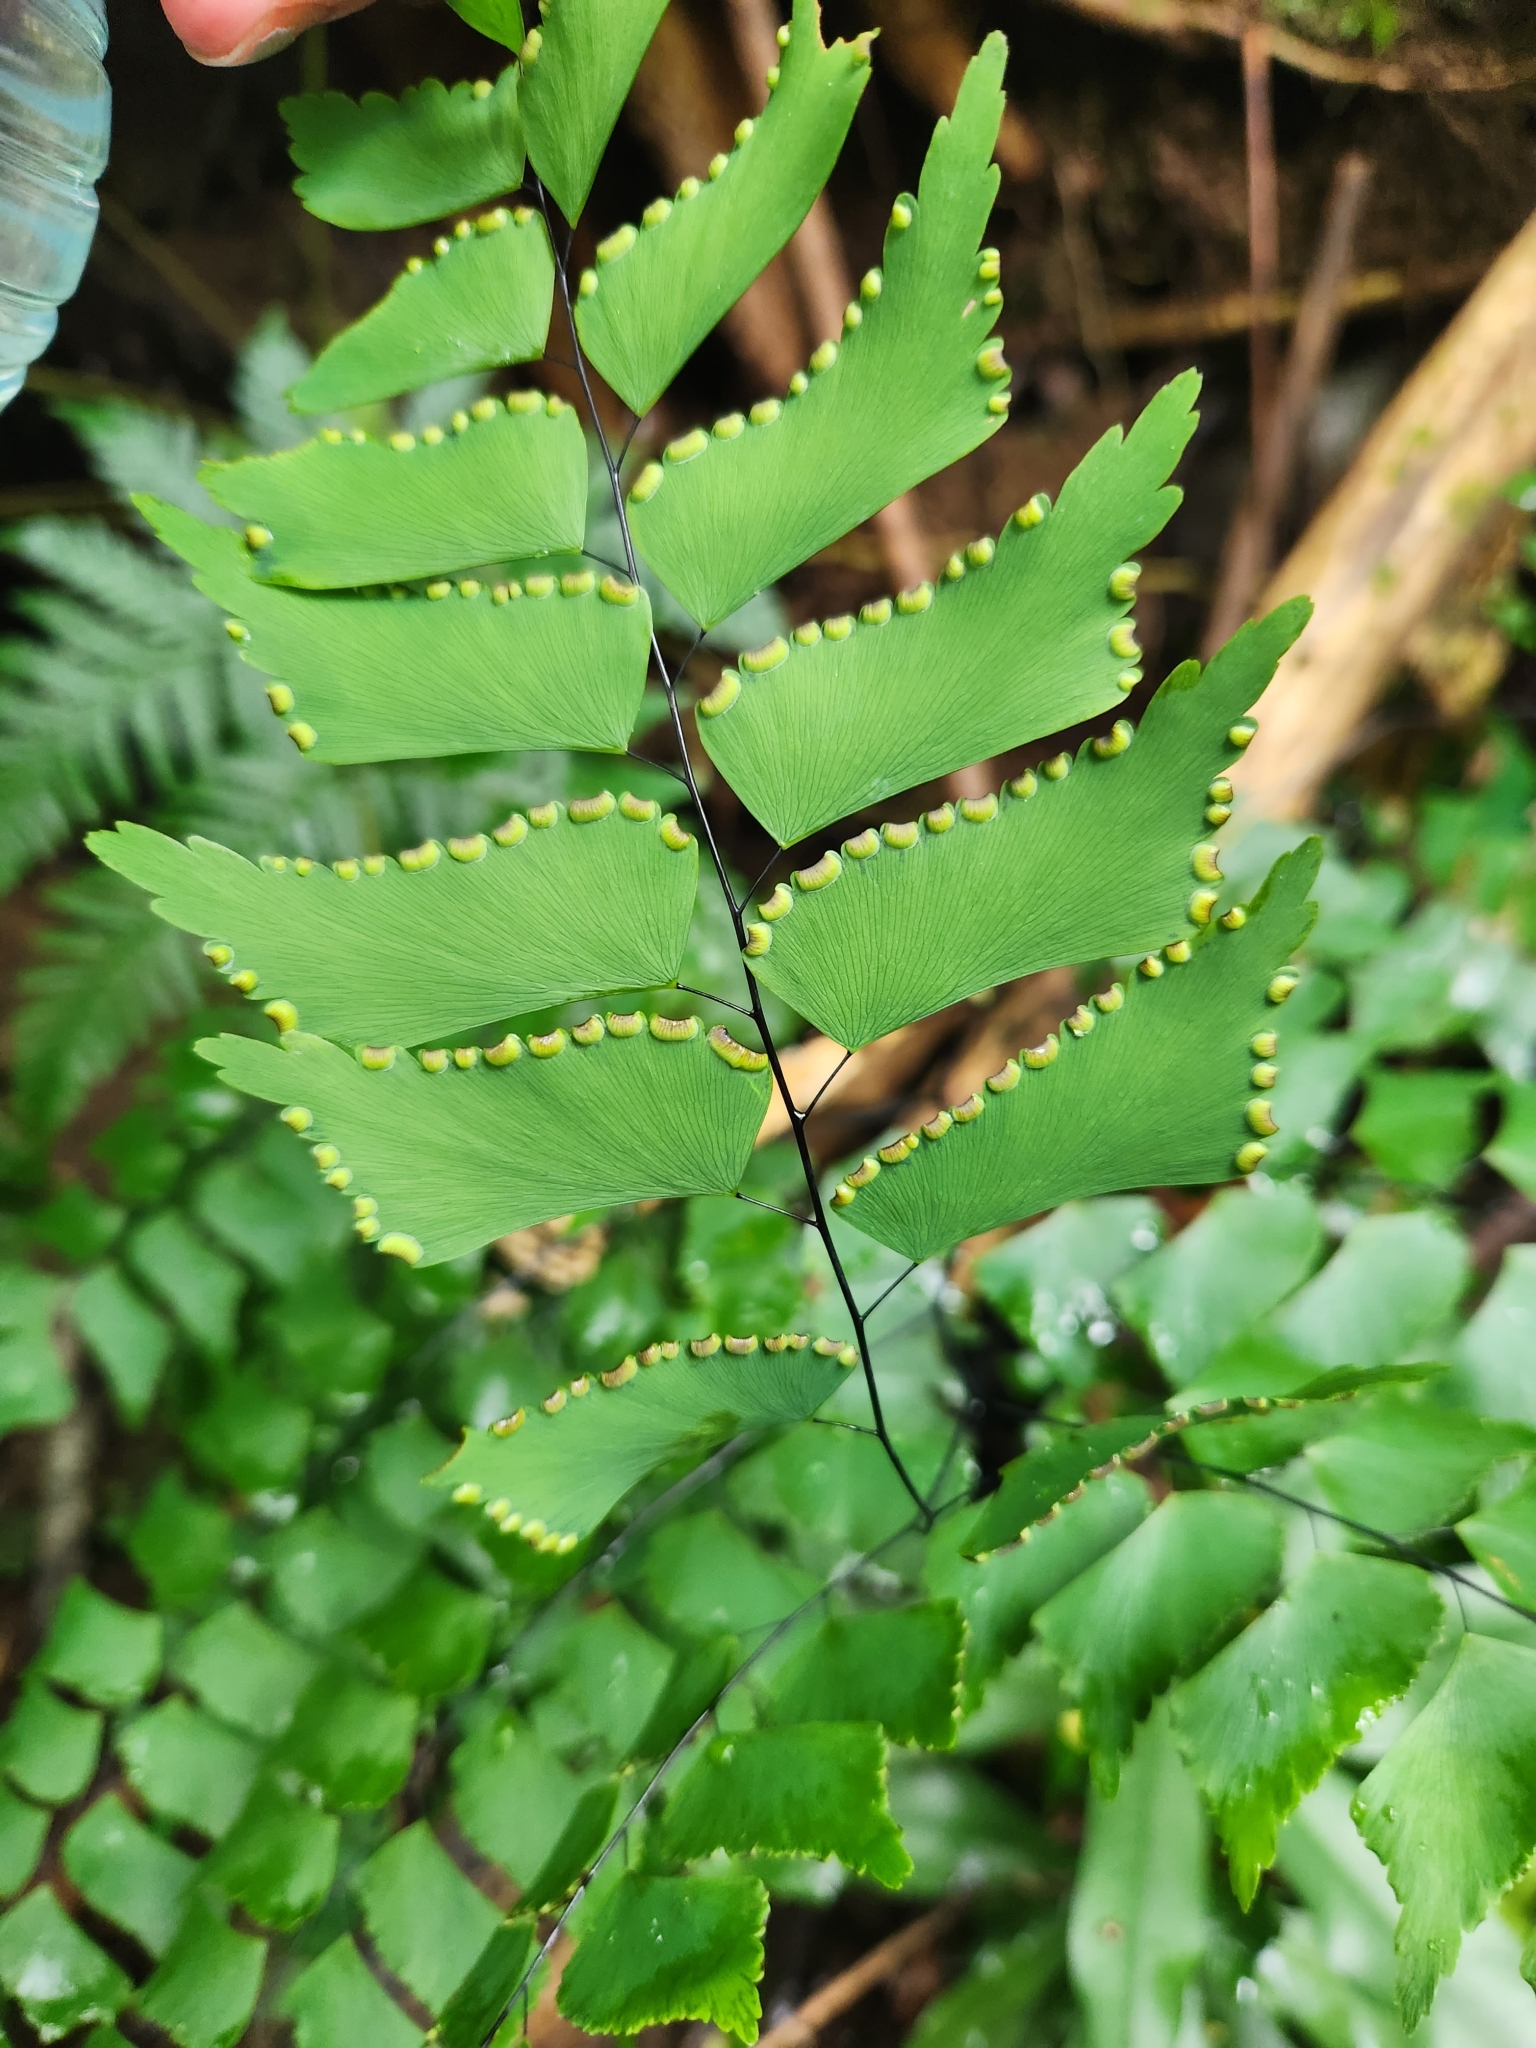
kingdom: Plantae
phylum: Tracheophyta
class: Polypodiopsida
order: Polypodiales
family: Pteridaceae
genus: Adiantum
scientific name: Adiantum trapeziforme
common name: Diamond maidenhair
